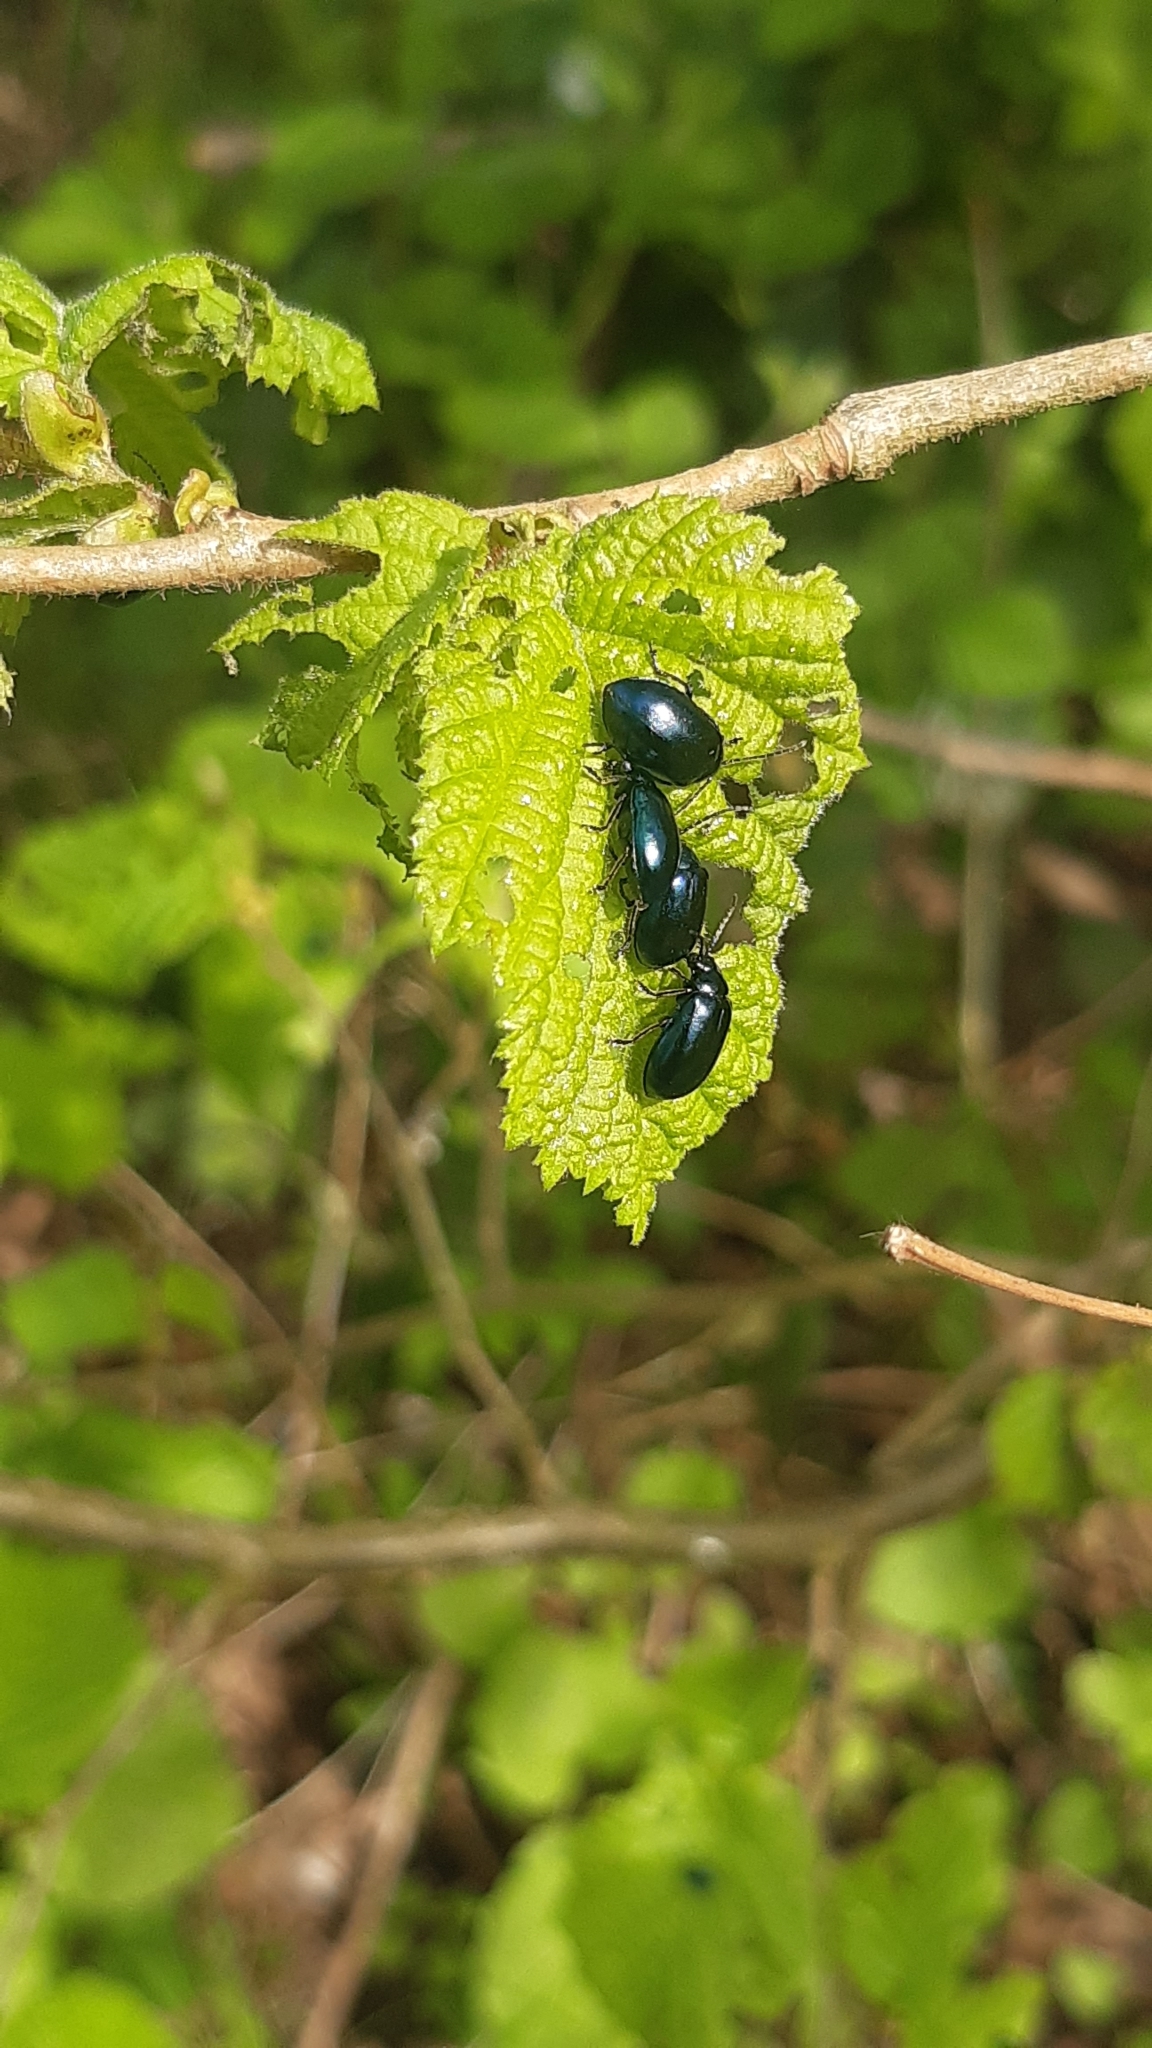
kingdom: Animalia
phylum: Arthropoda
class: Insecta
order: Coleoptera
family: Chrysomelidae
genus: Agelastica
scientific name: Agelastica alni
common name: Alder leaf beetle
